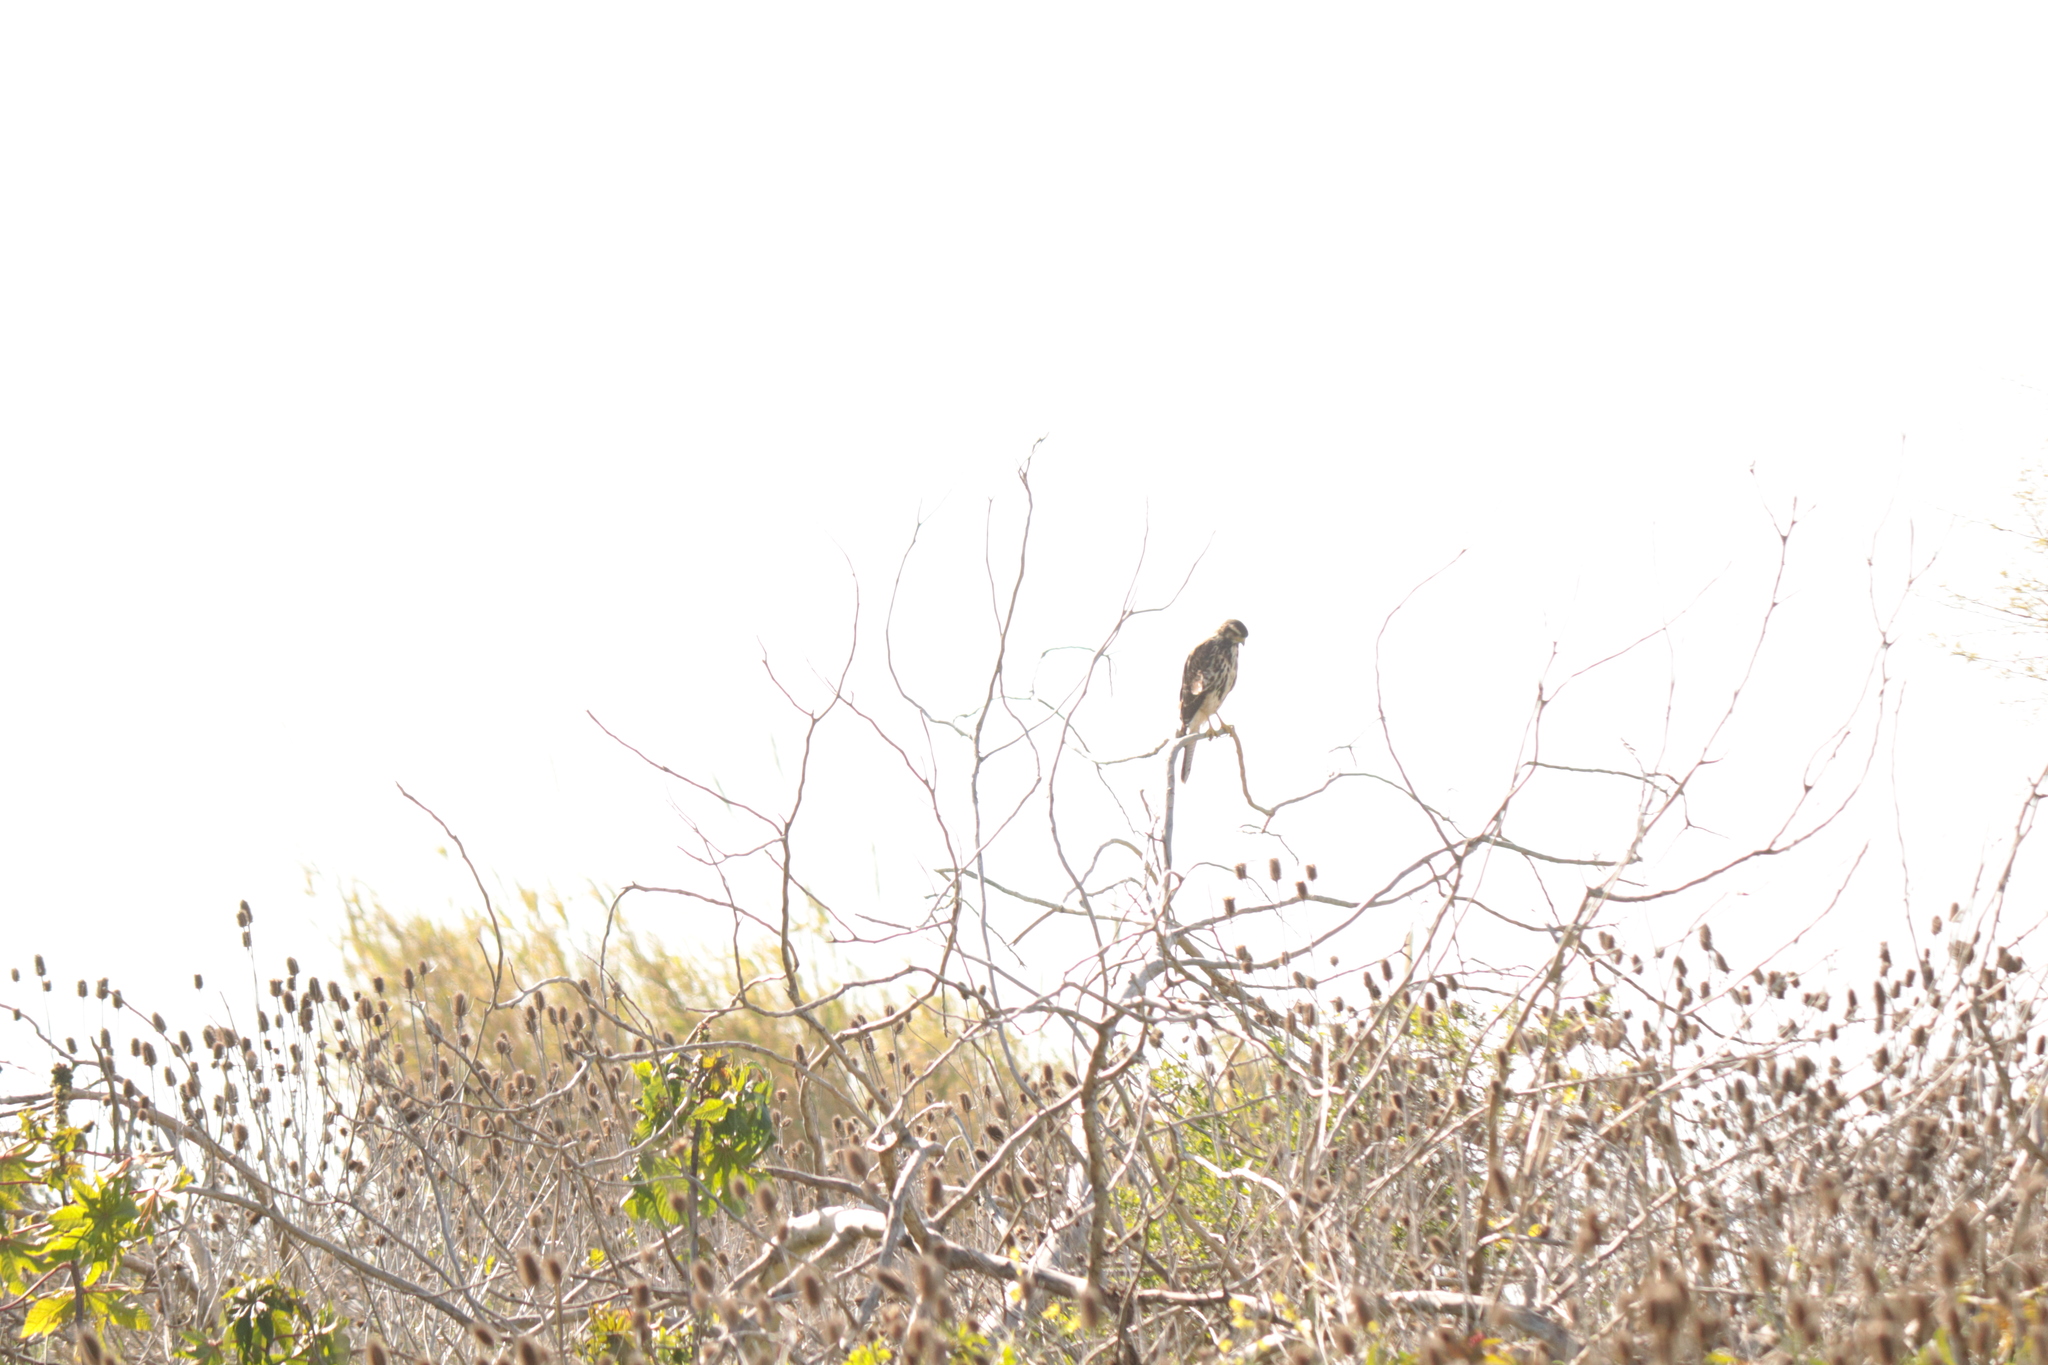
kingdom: Animalia
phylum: Chordata
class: Aves
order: Accipitriformes
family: Accipitridae
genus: Parabuteo
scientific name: Parabuteo unicinctus
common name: Harris's hawk
